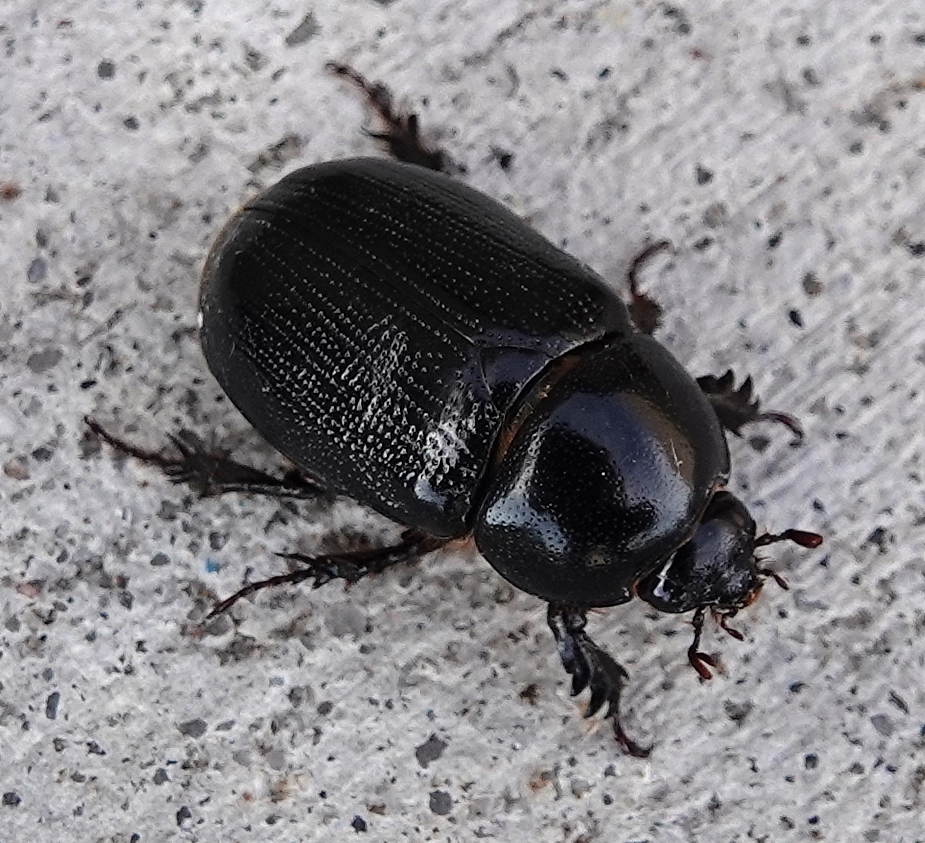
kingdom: Animalia
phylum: Arthropoda
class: Insecta
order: Coleoptera
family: Scarabaeidae
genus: Ligyrus
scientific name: Ligyrus relictus
